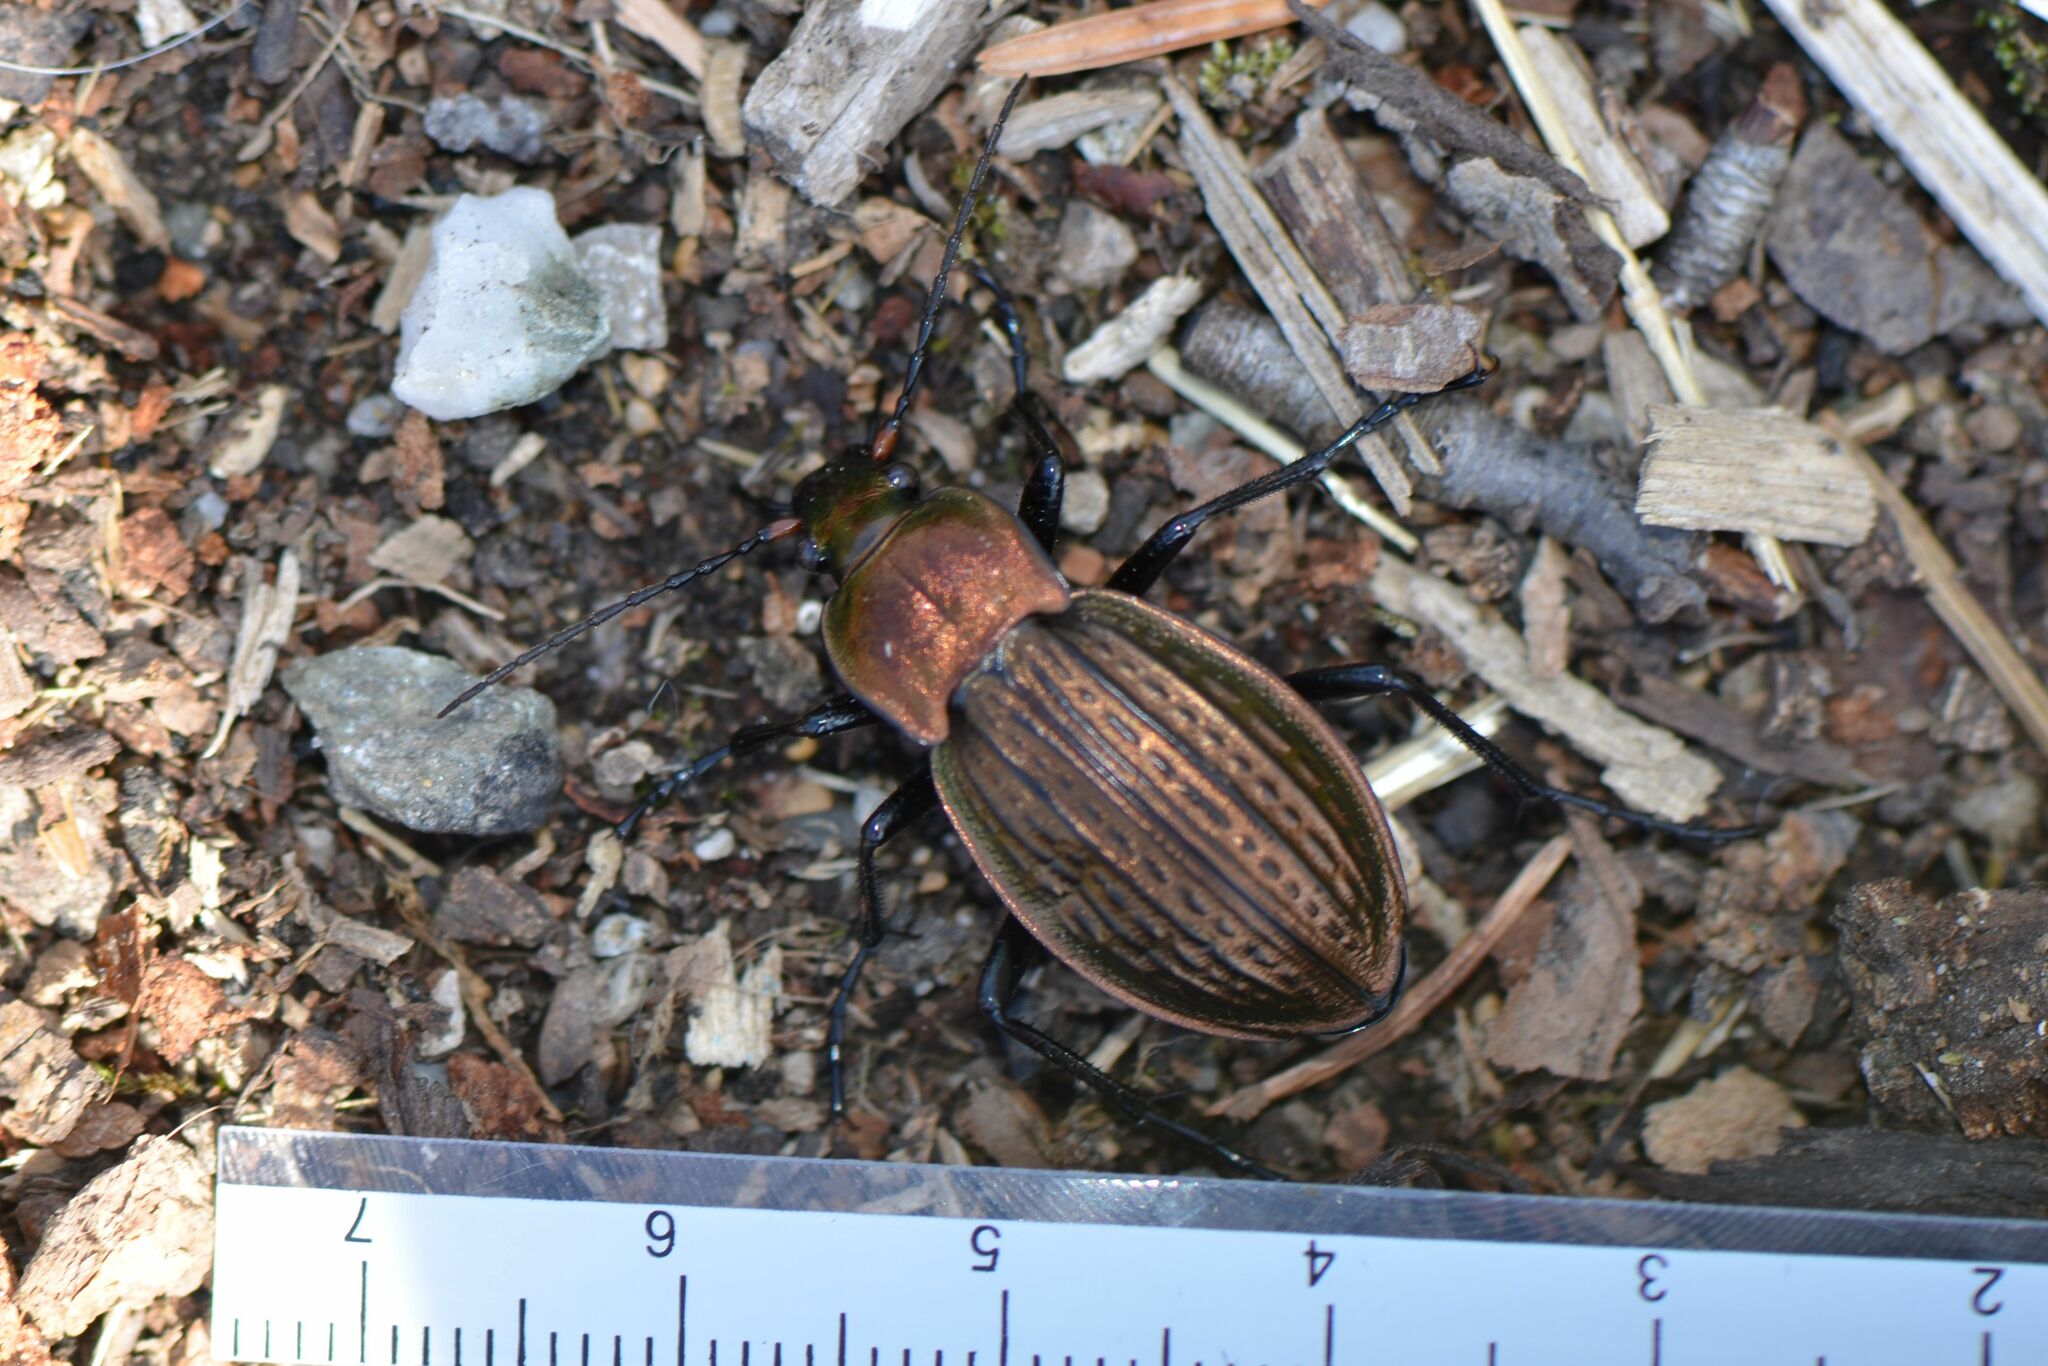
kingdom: Animalia
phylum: Arthropoda
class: Insecta
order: Coleoptera
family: Carabidae
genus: Carabus
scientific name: Carabus cancellatus
